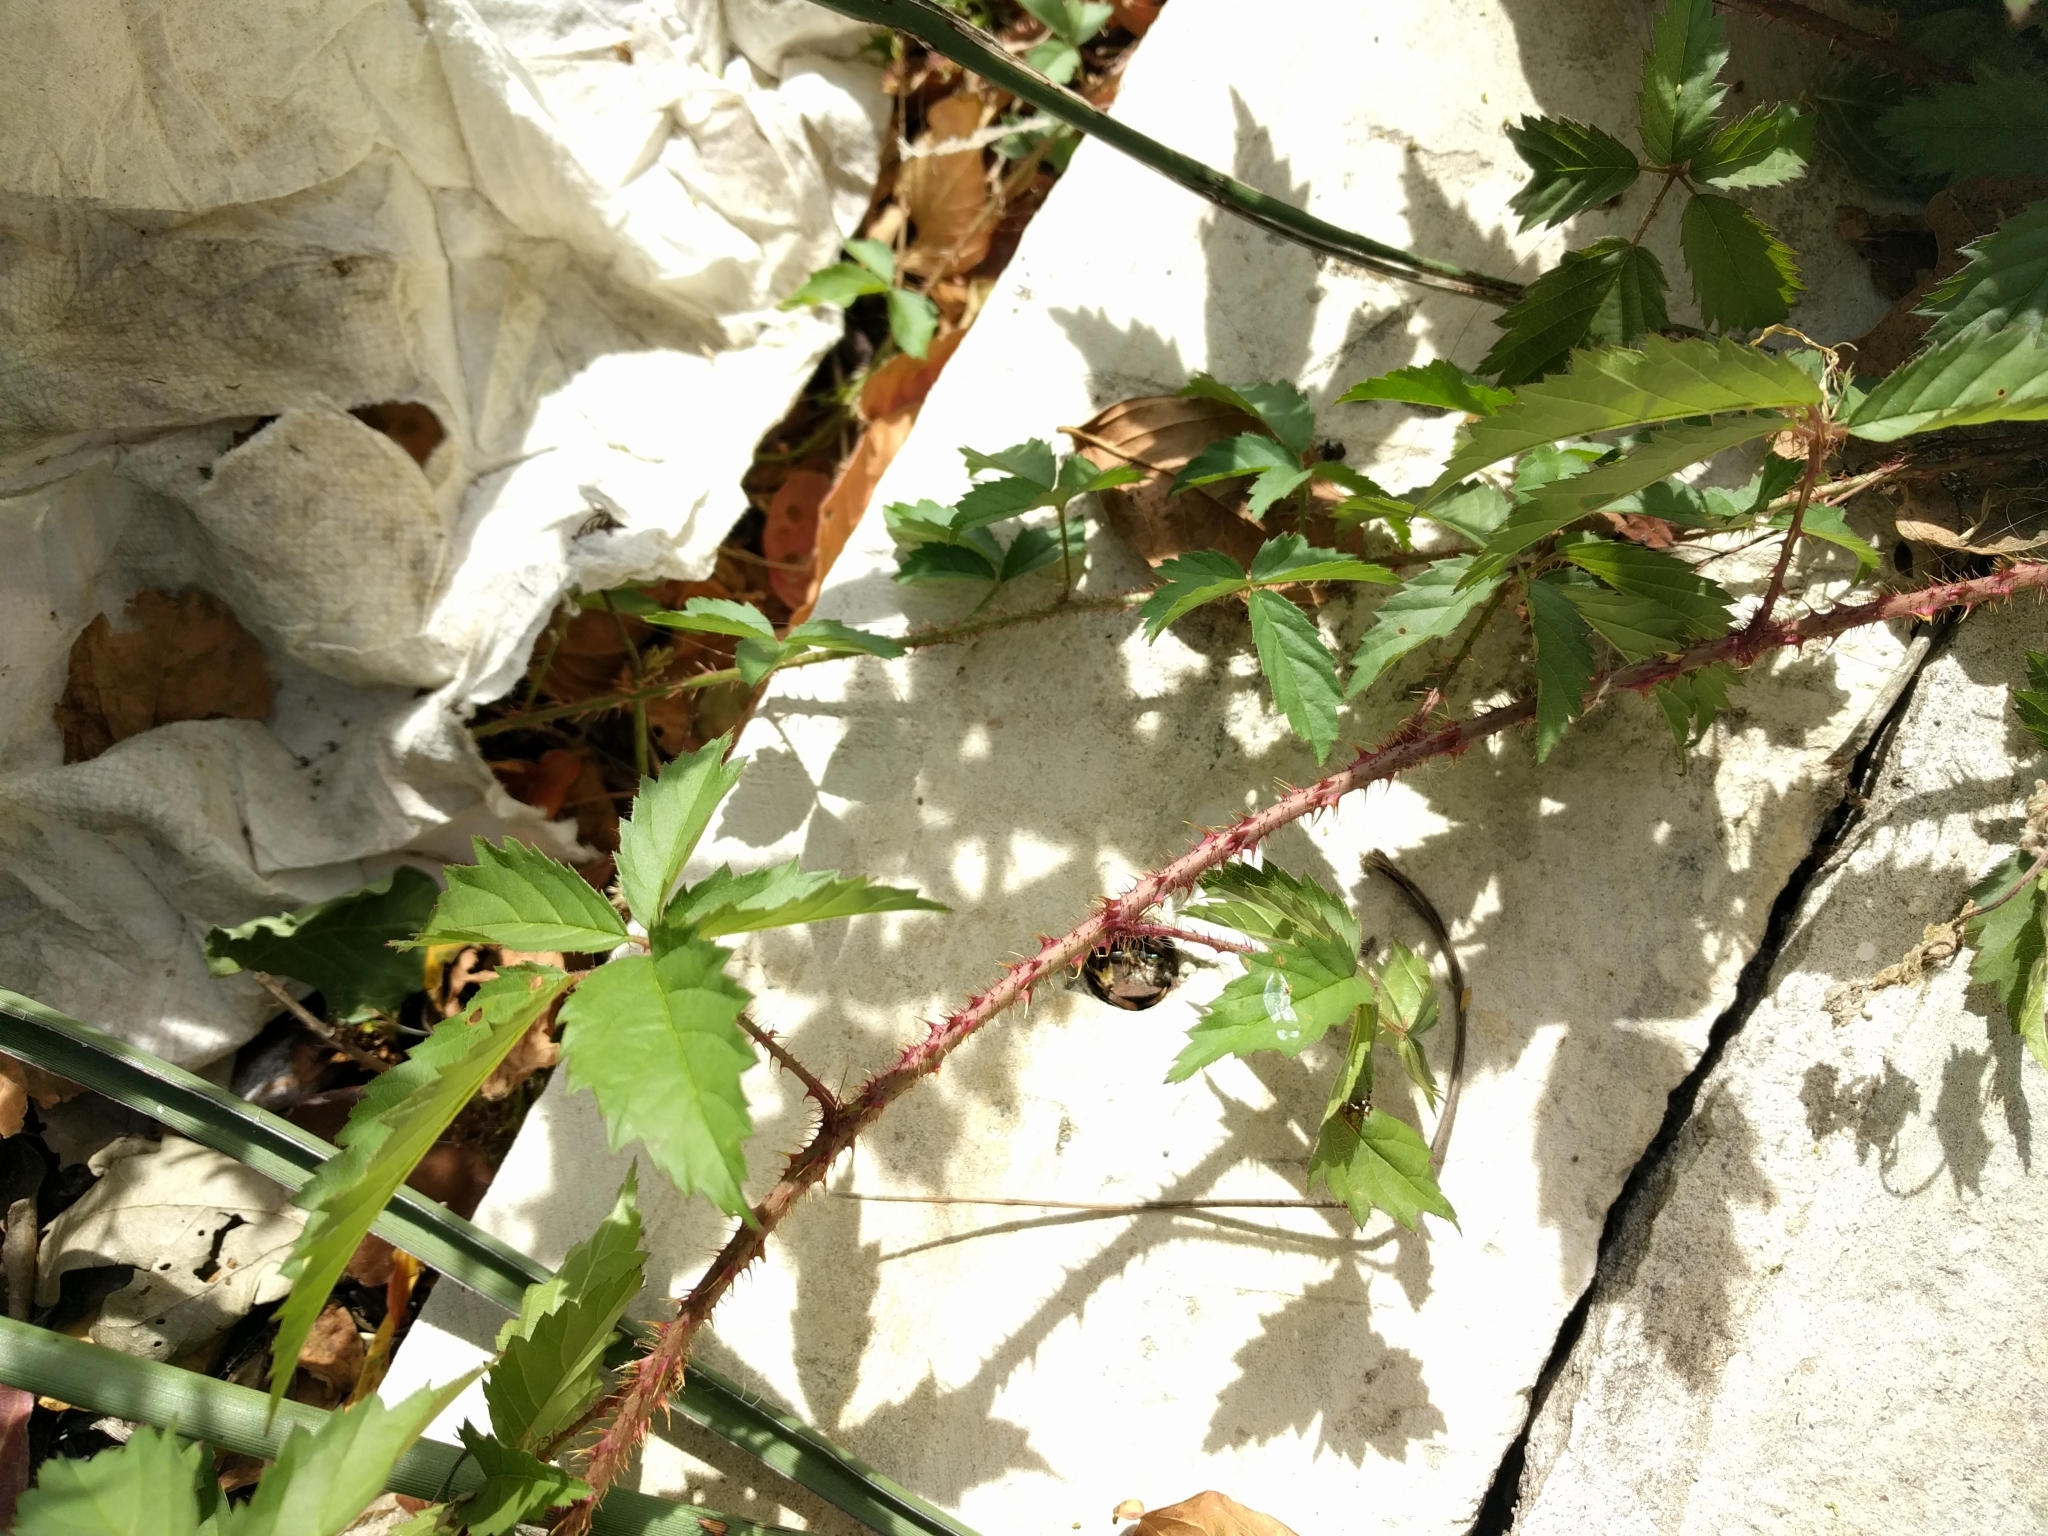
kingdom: Plantae
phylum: Tracheophyta
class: Magnoliopsida
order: Rosales
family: Rosaceae
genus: Rubus
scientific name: Rubus trivialis
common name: Southern dewberry
